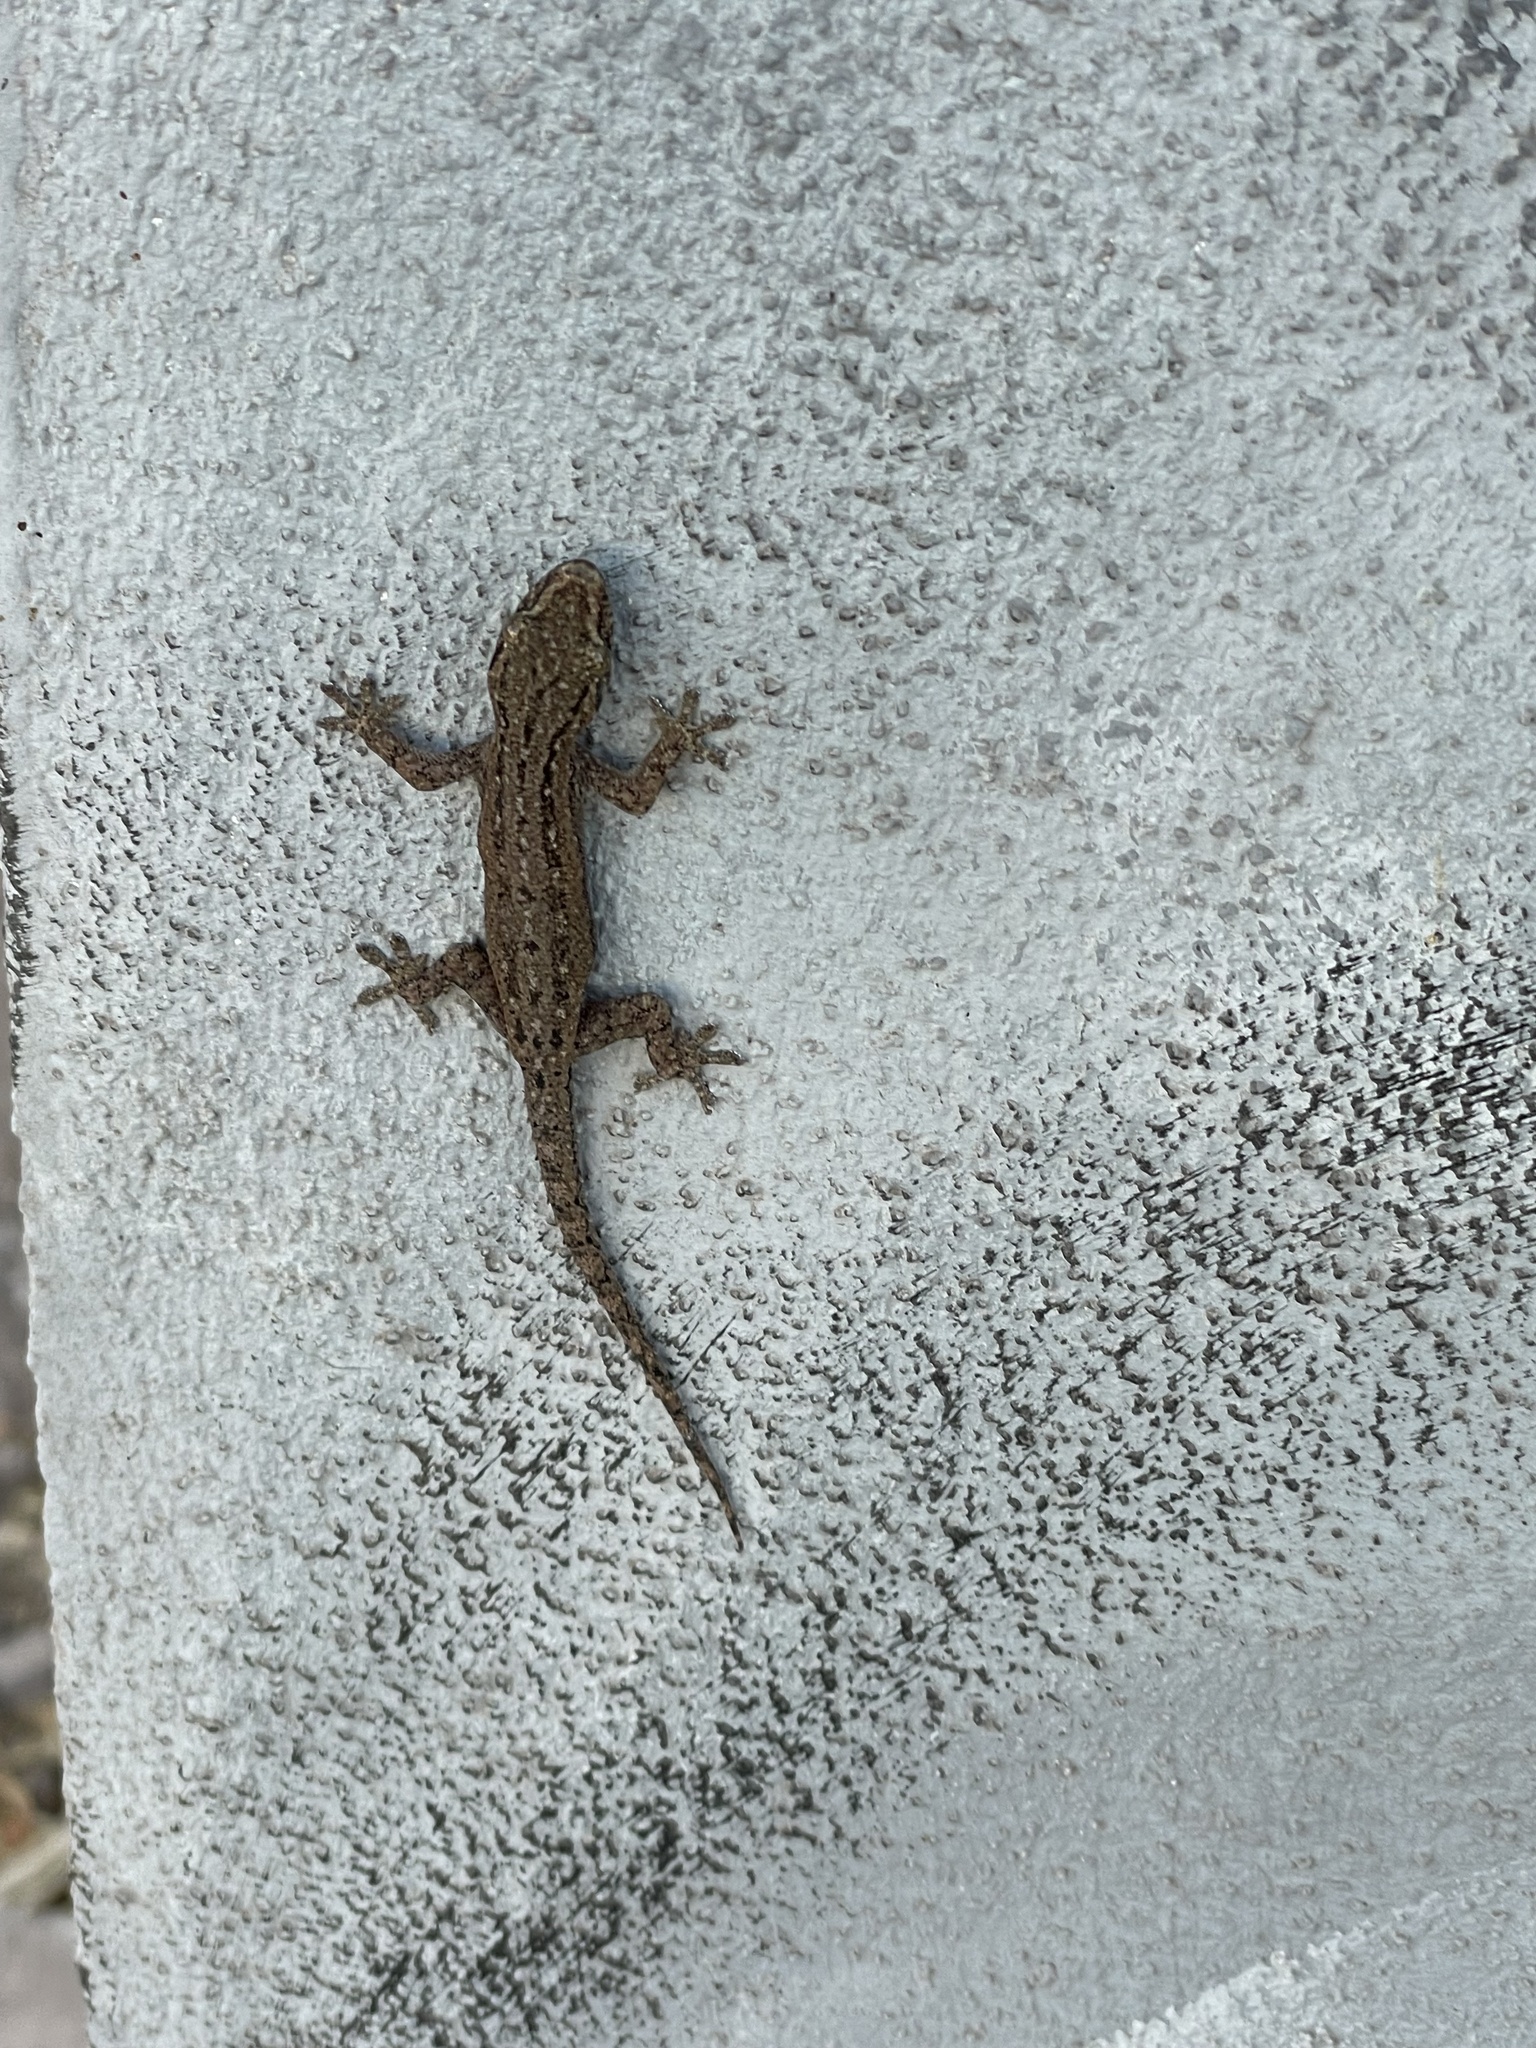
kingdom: Animalia
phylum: Chordata
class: Squamata
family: Gekkonidae
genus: Hemidactylus
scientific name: Hemidactylus frenatus
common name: Common house gecko
